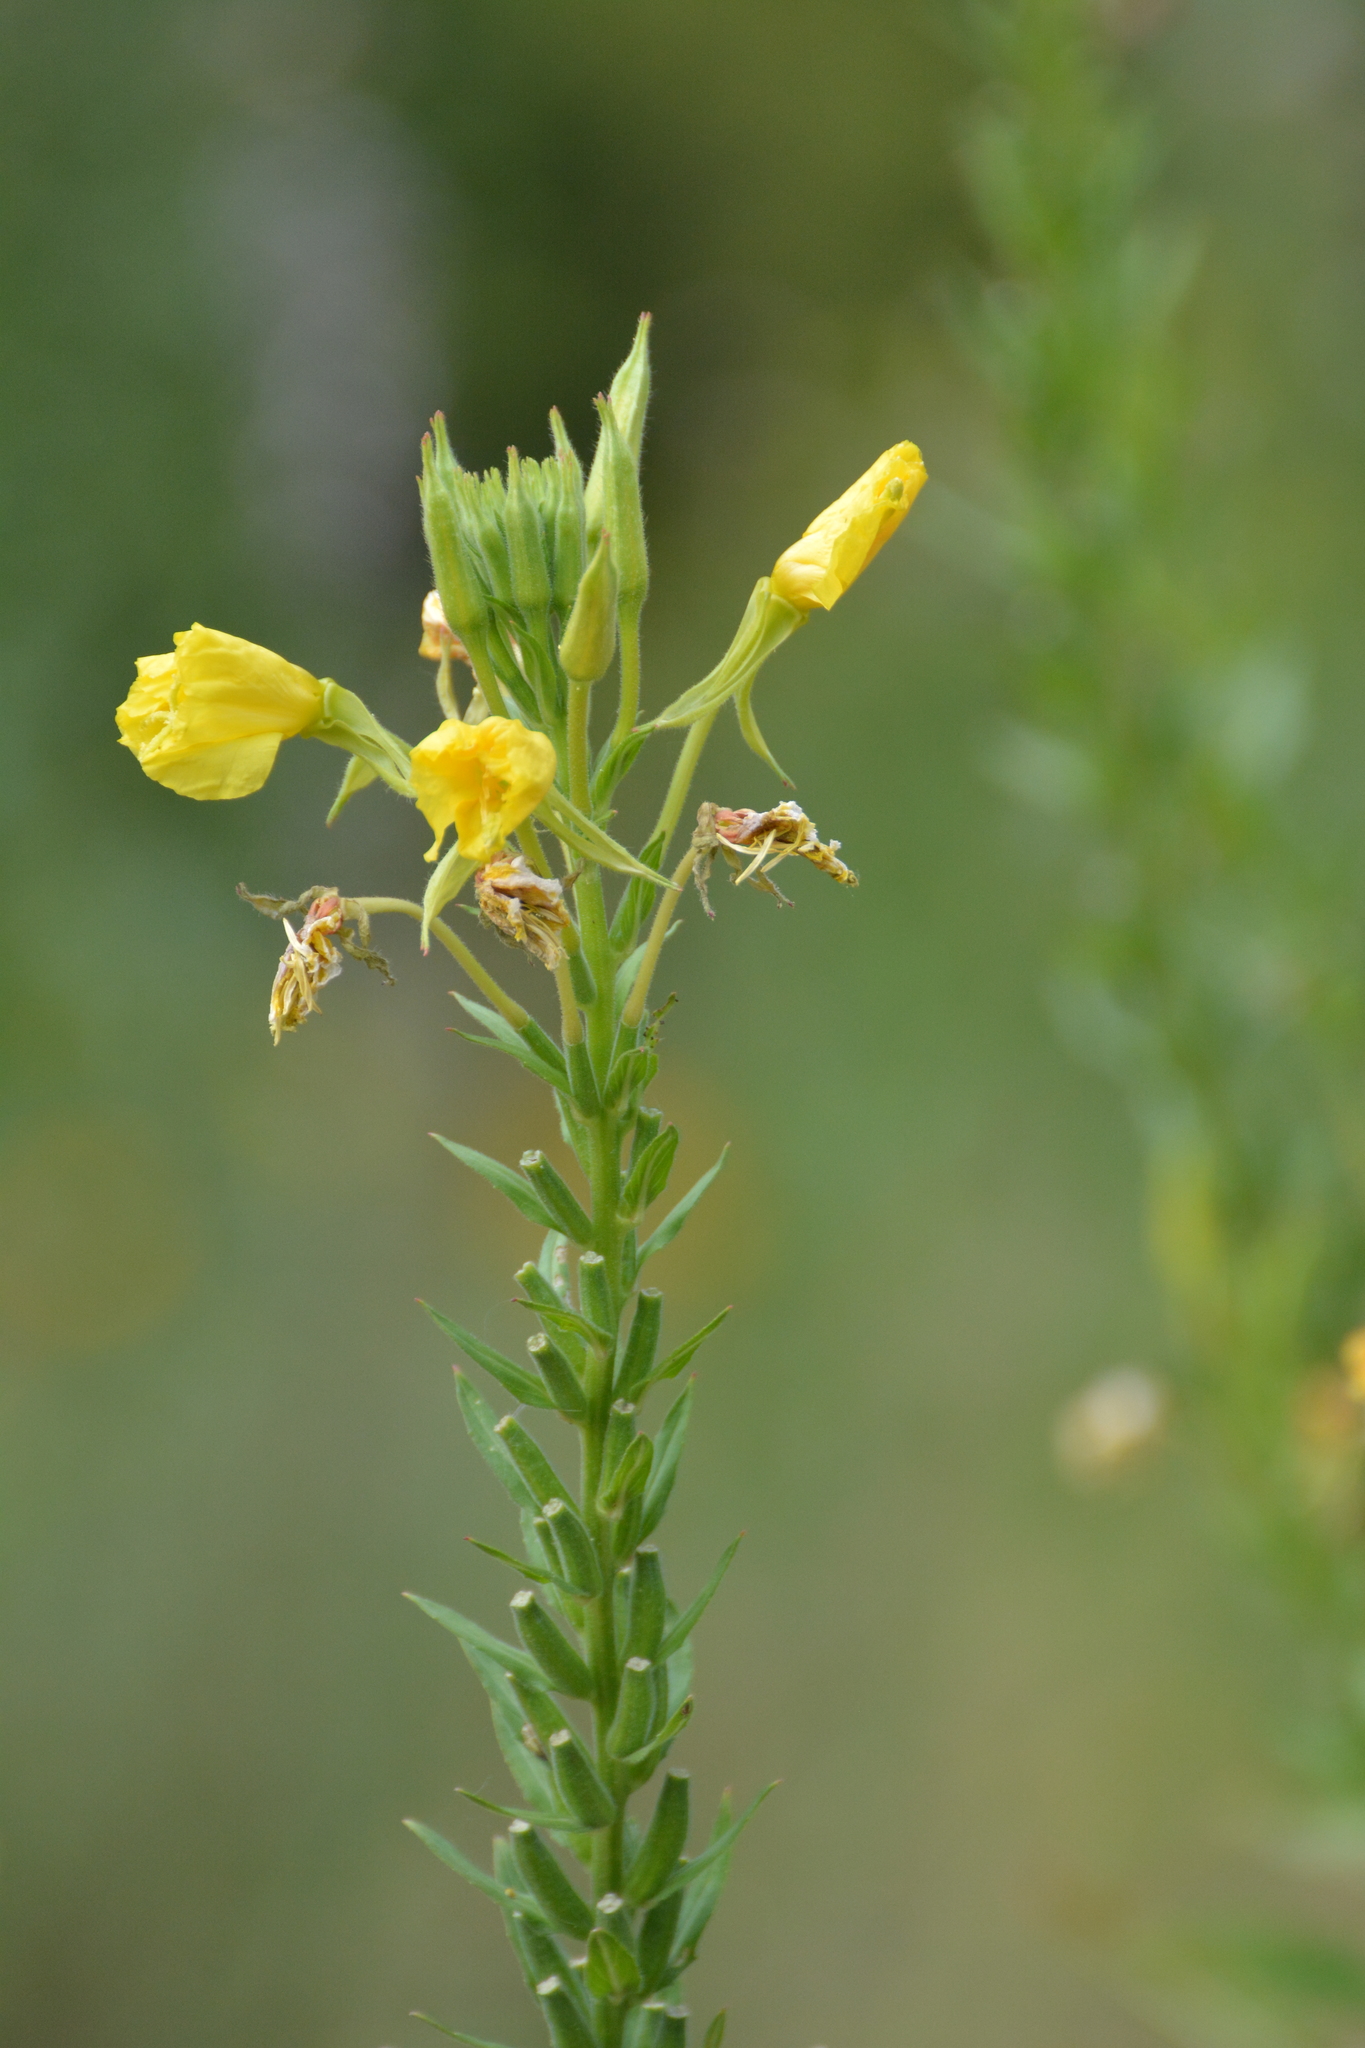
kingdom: Plantae
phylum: Tracheophyta
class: Magnoliopsida
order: Myrtales
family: Onagraceae
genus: Oenothera
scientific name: Oenothera biennis
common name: Common evening-primrose
